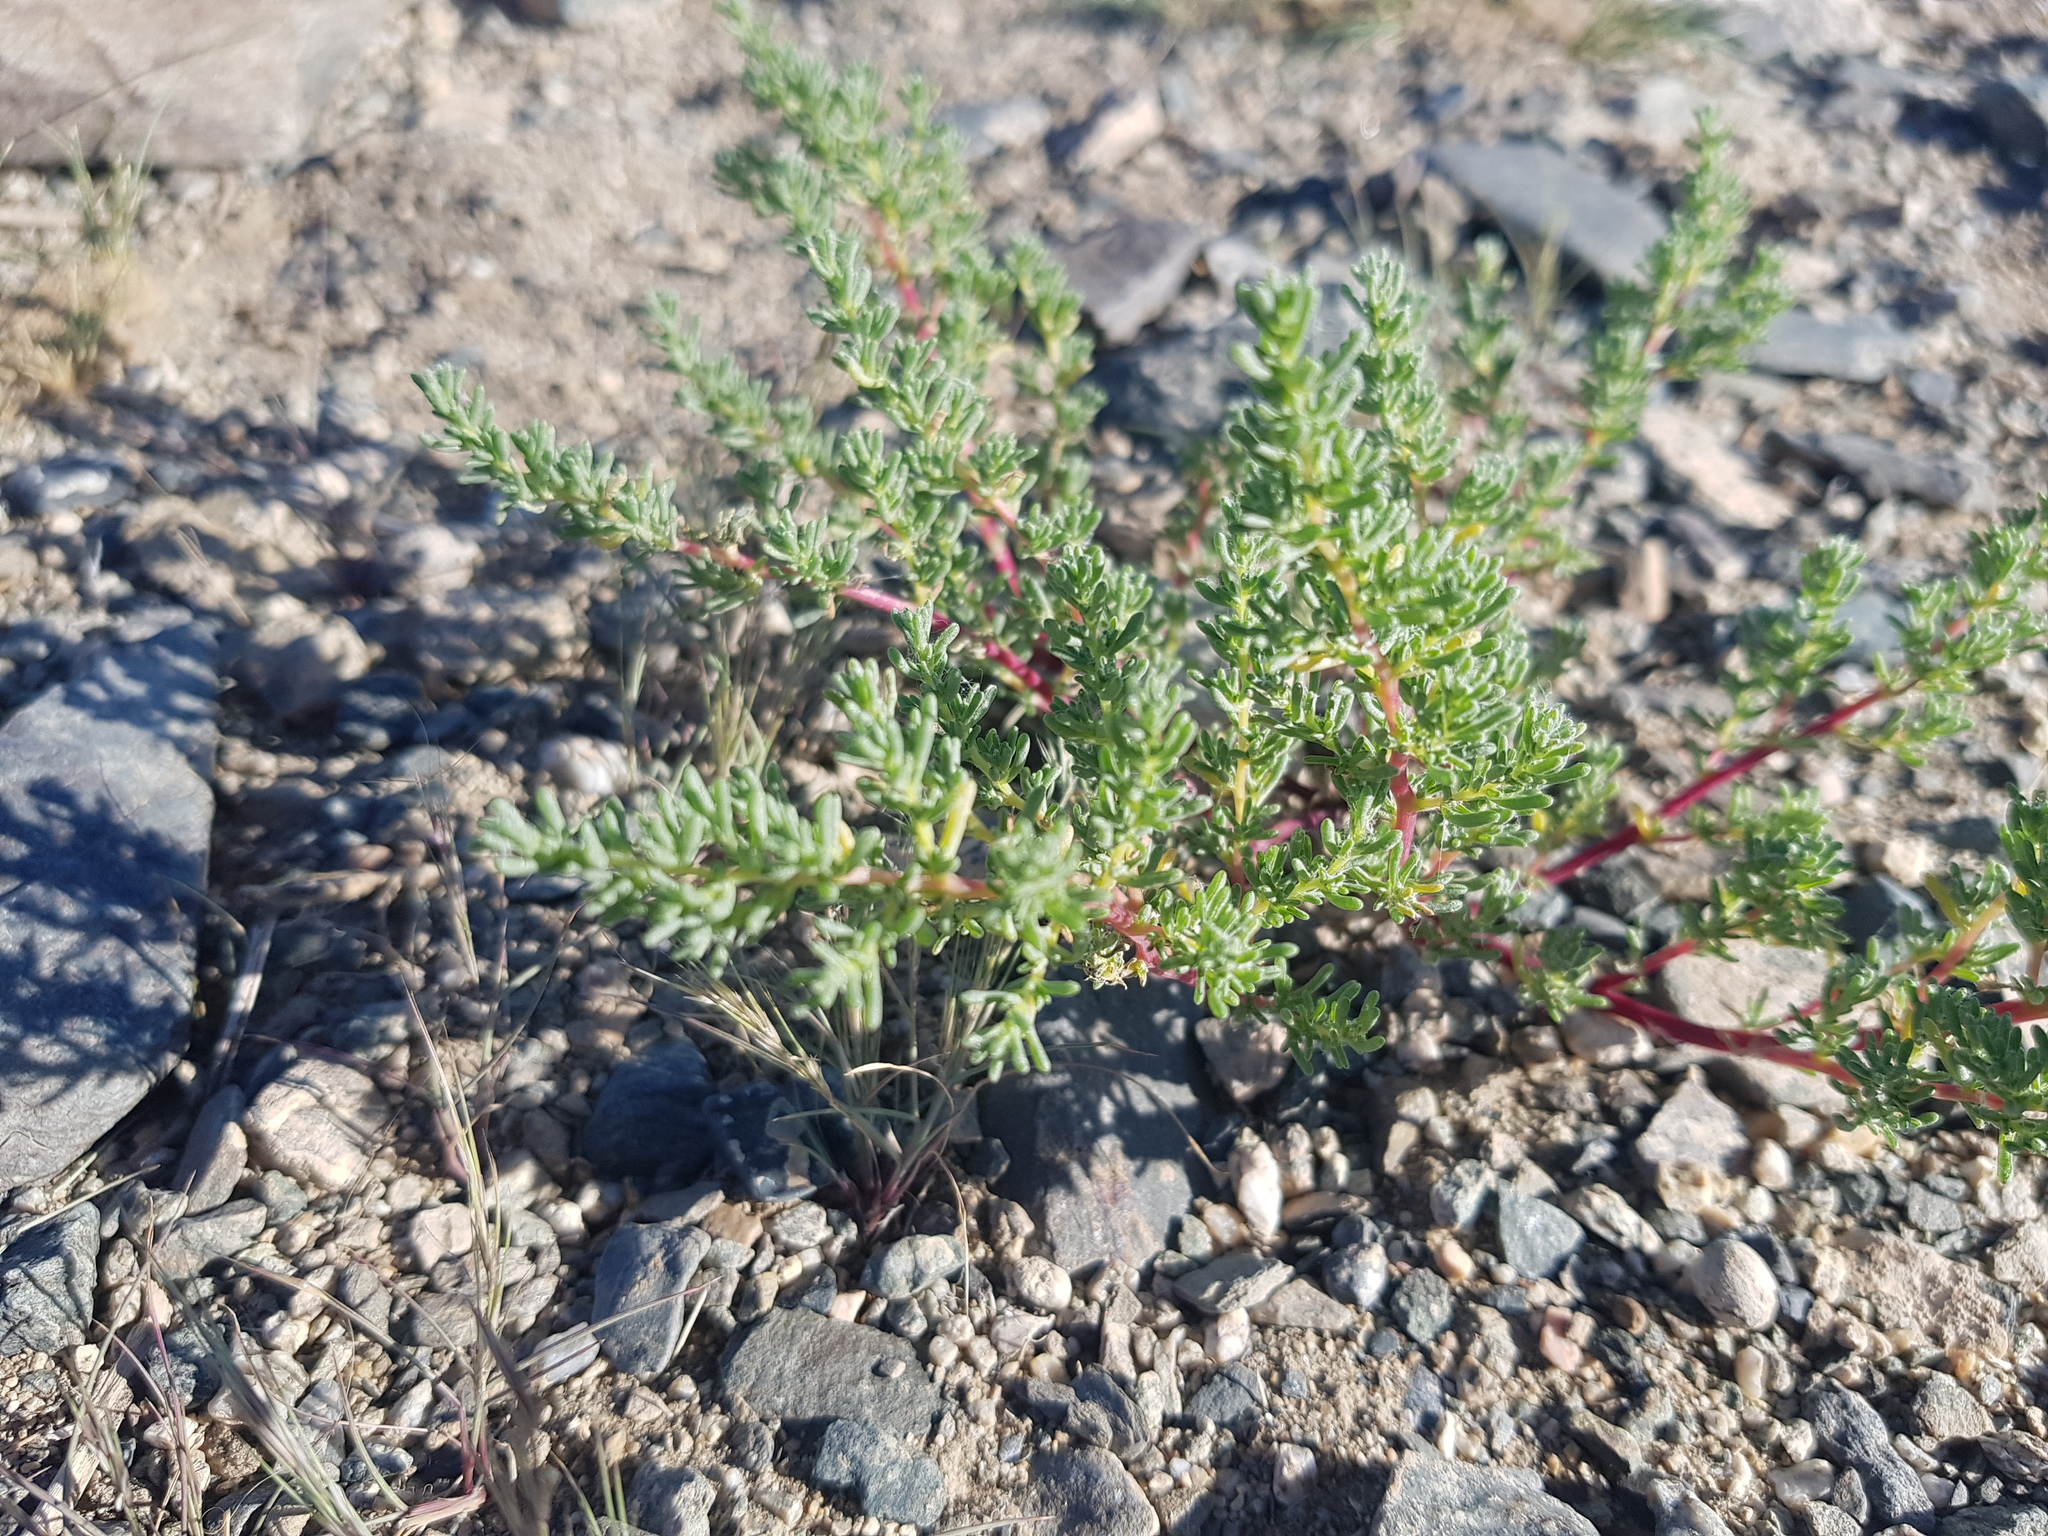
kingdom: Plantae
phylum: Tracheophyta
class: Magnoliopsida
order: Caryophyllales
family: Amaranthaceae
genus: Halogeton
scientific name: Halogeton arachnoides
